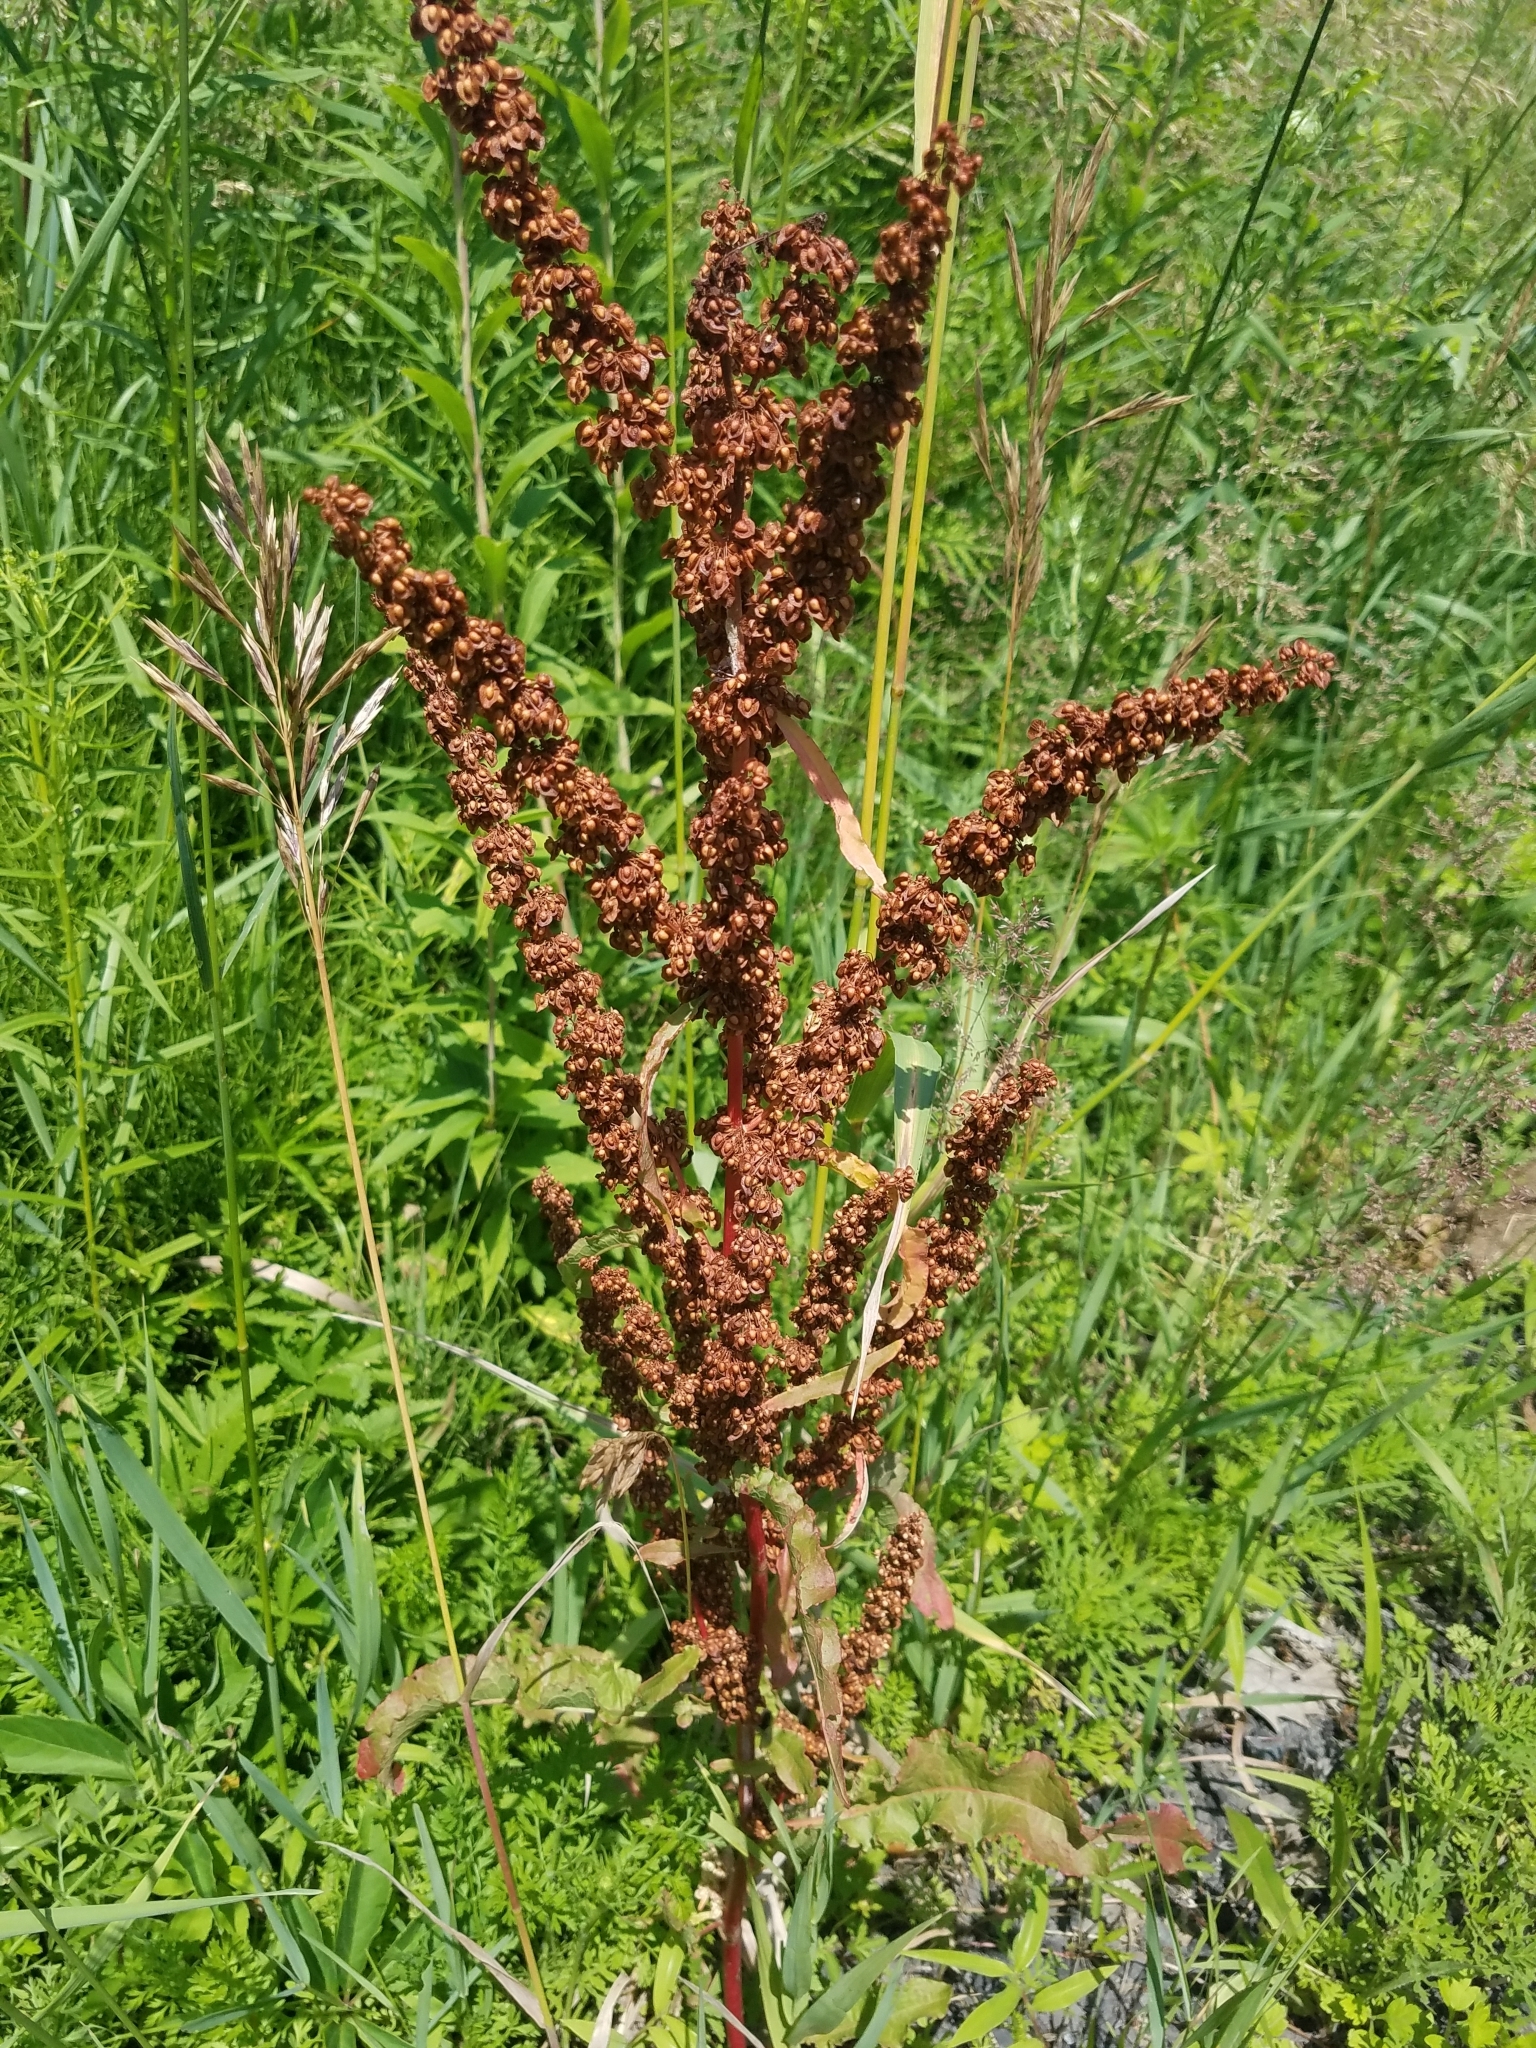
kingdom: Plantae
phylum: Tracheophyta
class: Magnoliopsida
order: Caryophyllales
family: Polygonaceae
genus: Rumex
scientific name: Rumex crispus
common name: Curled dock
